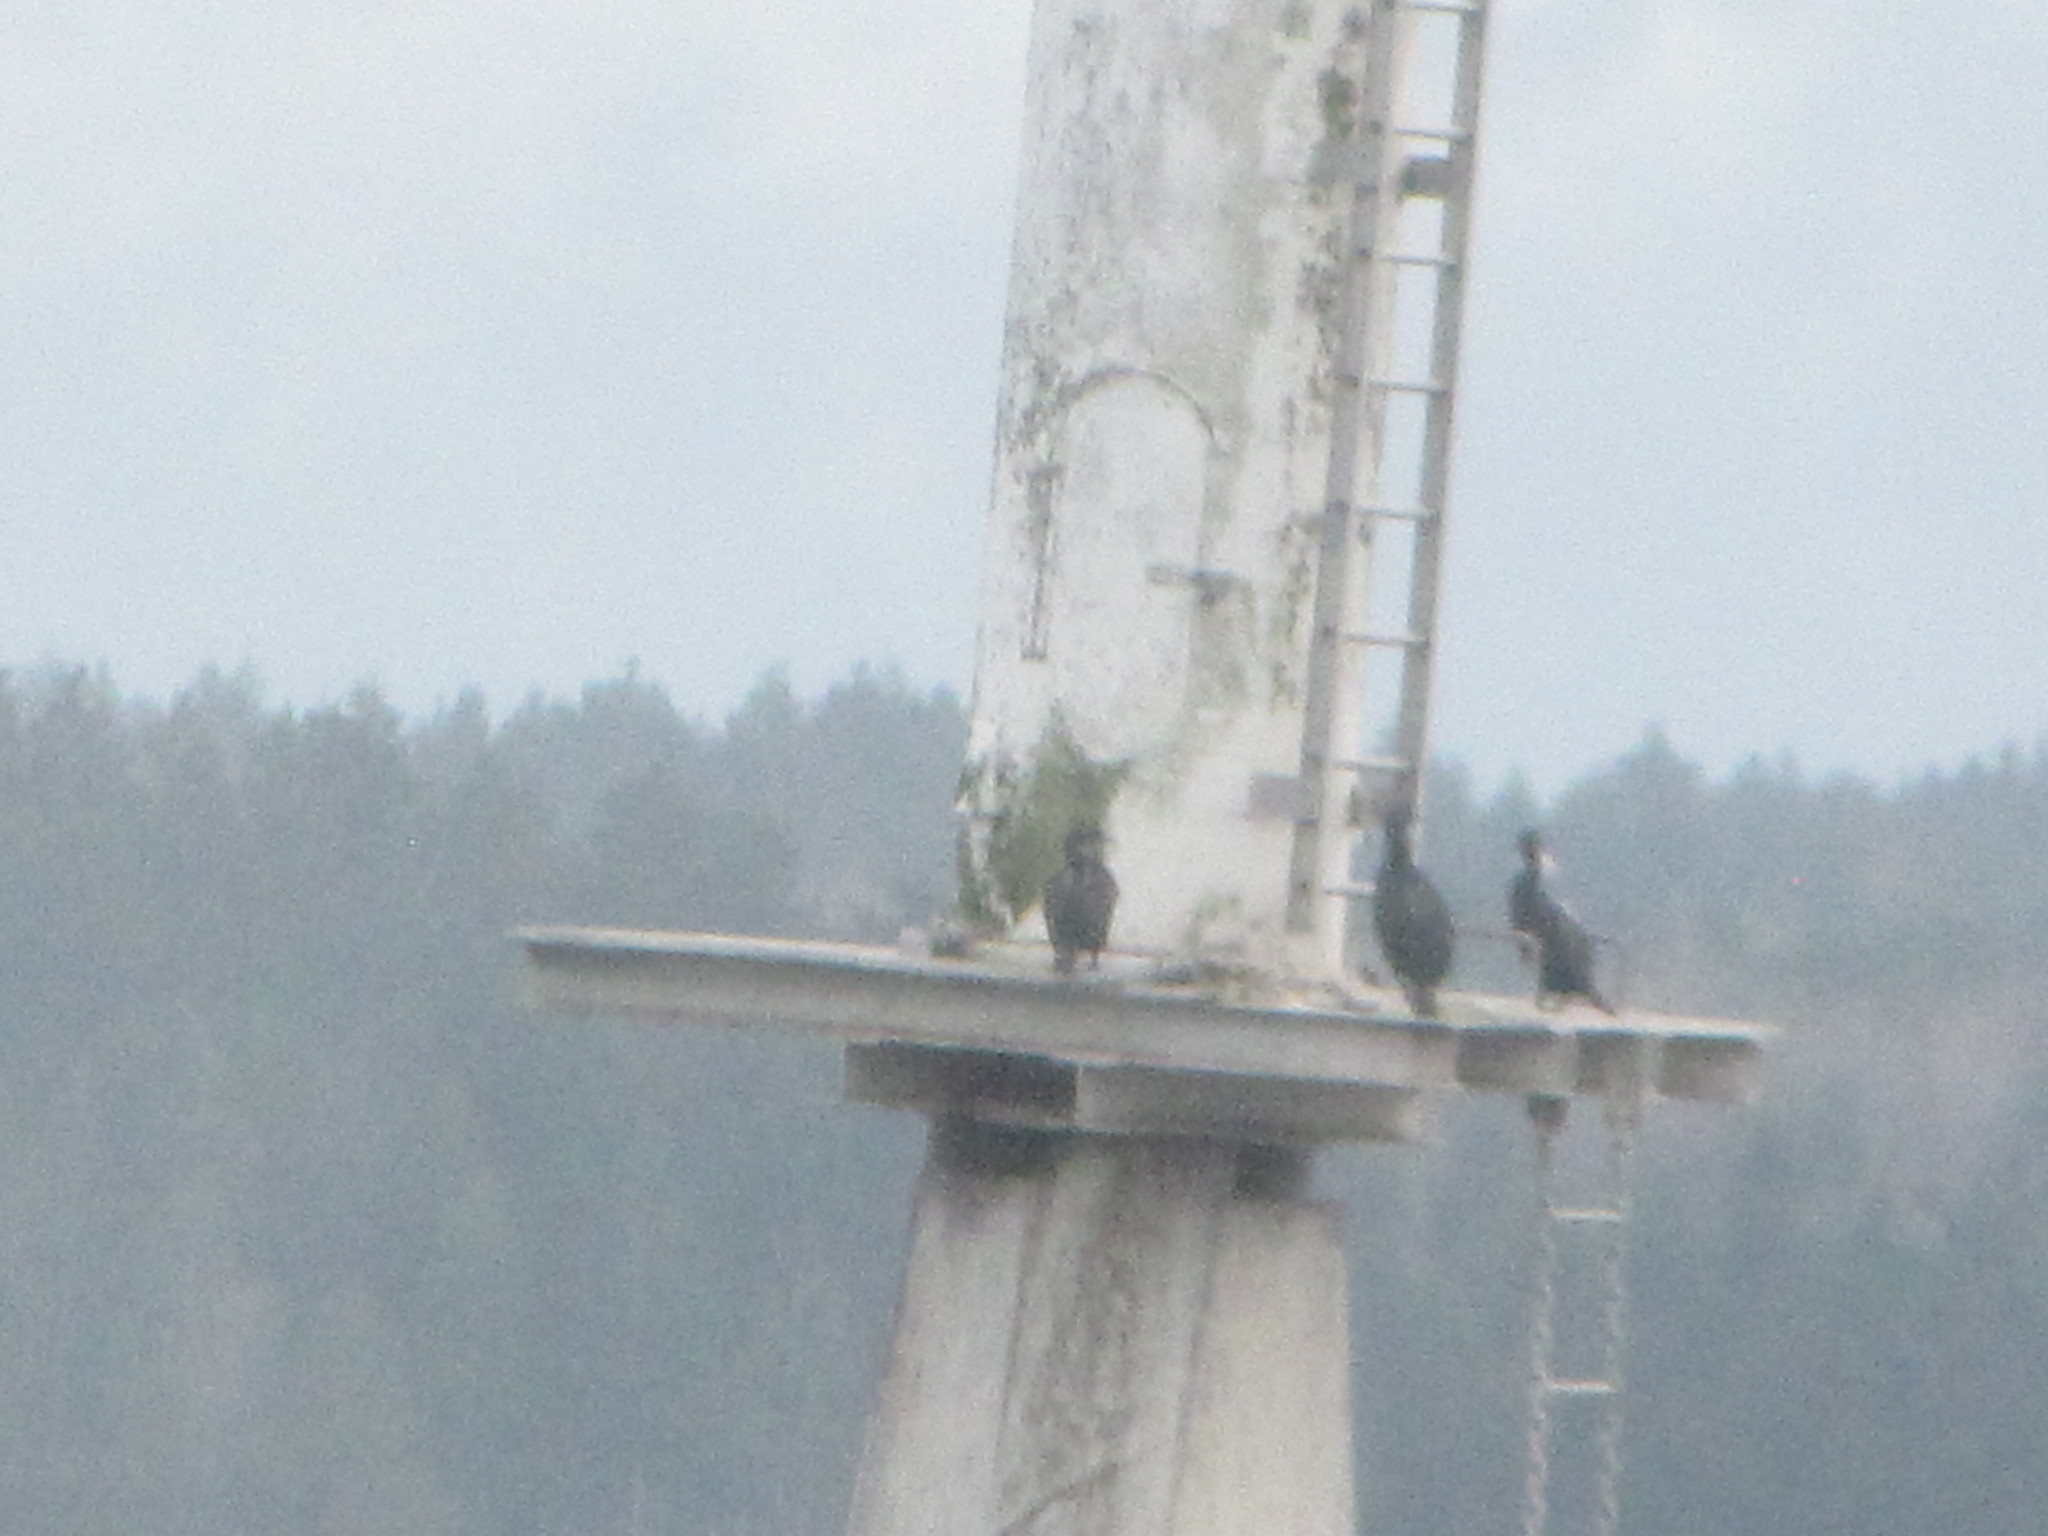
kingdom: Animalia
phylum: Chordata
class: Aves
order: Suliformes
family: Phalacrocoracidae
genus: Urile
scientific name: Urile penicillatus
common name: Brandt's cormorant
